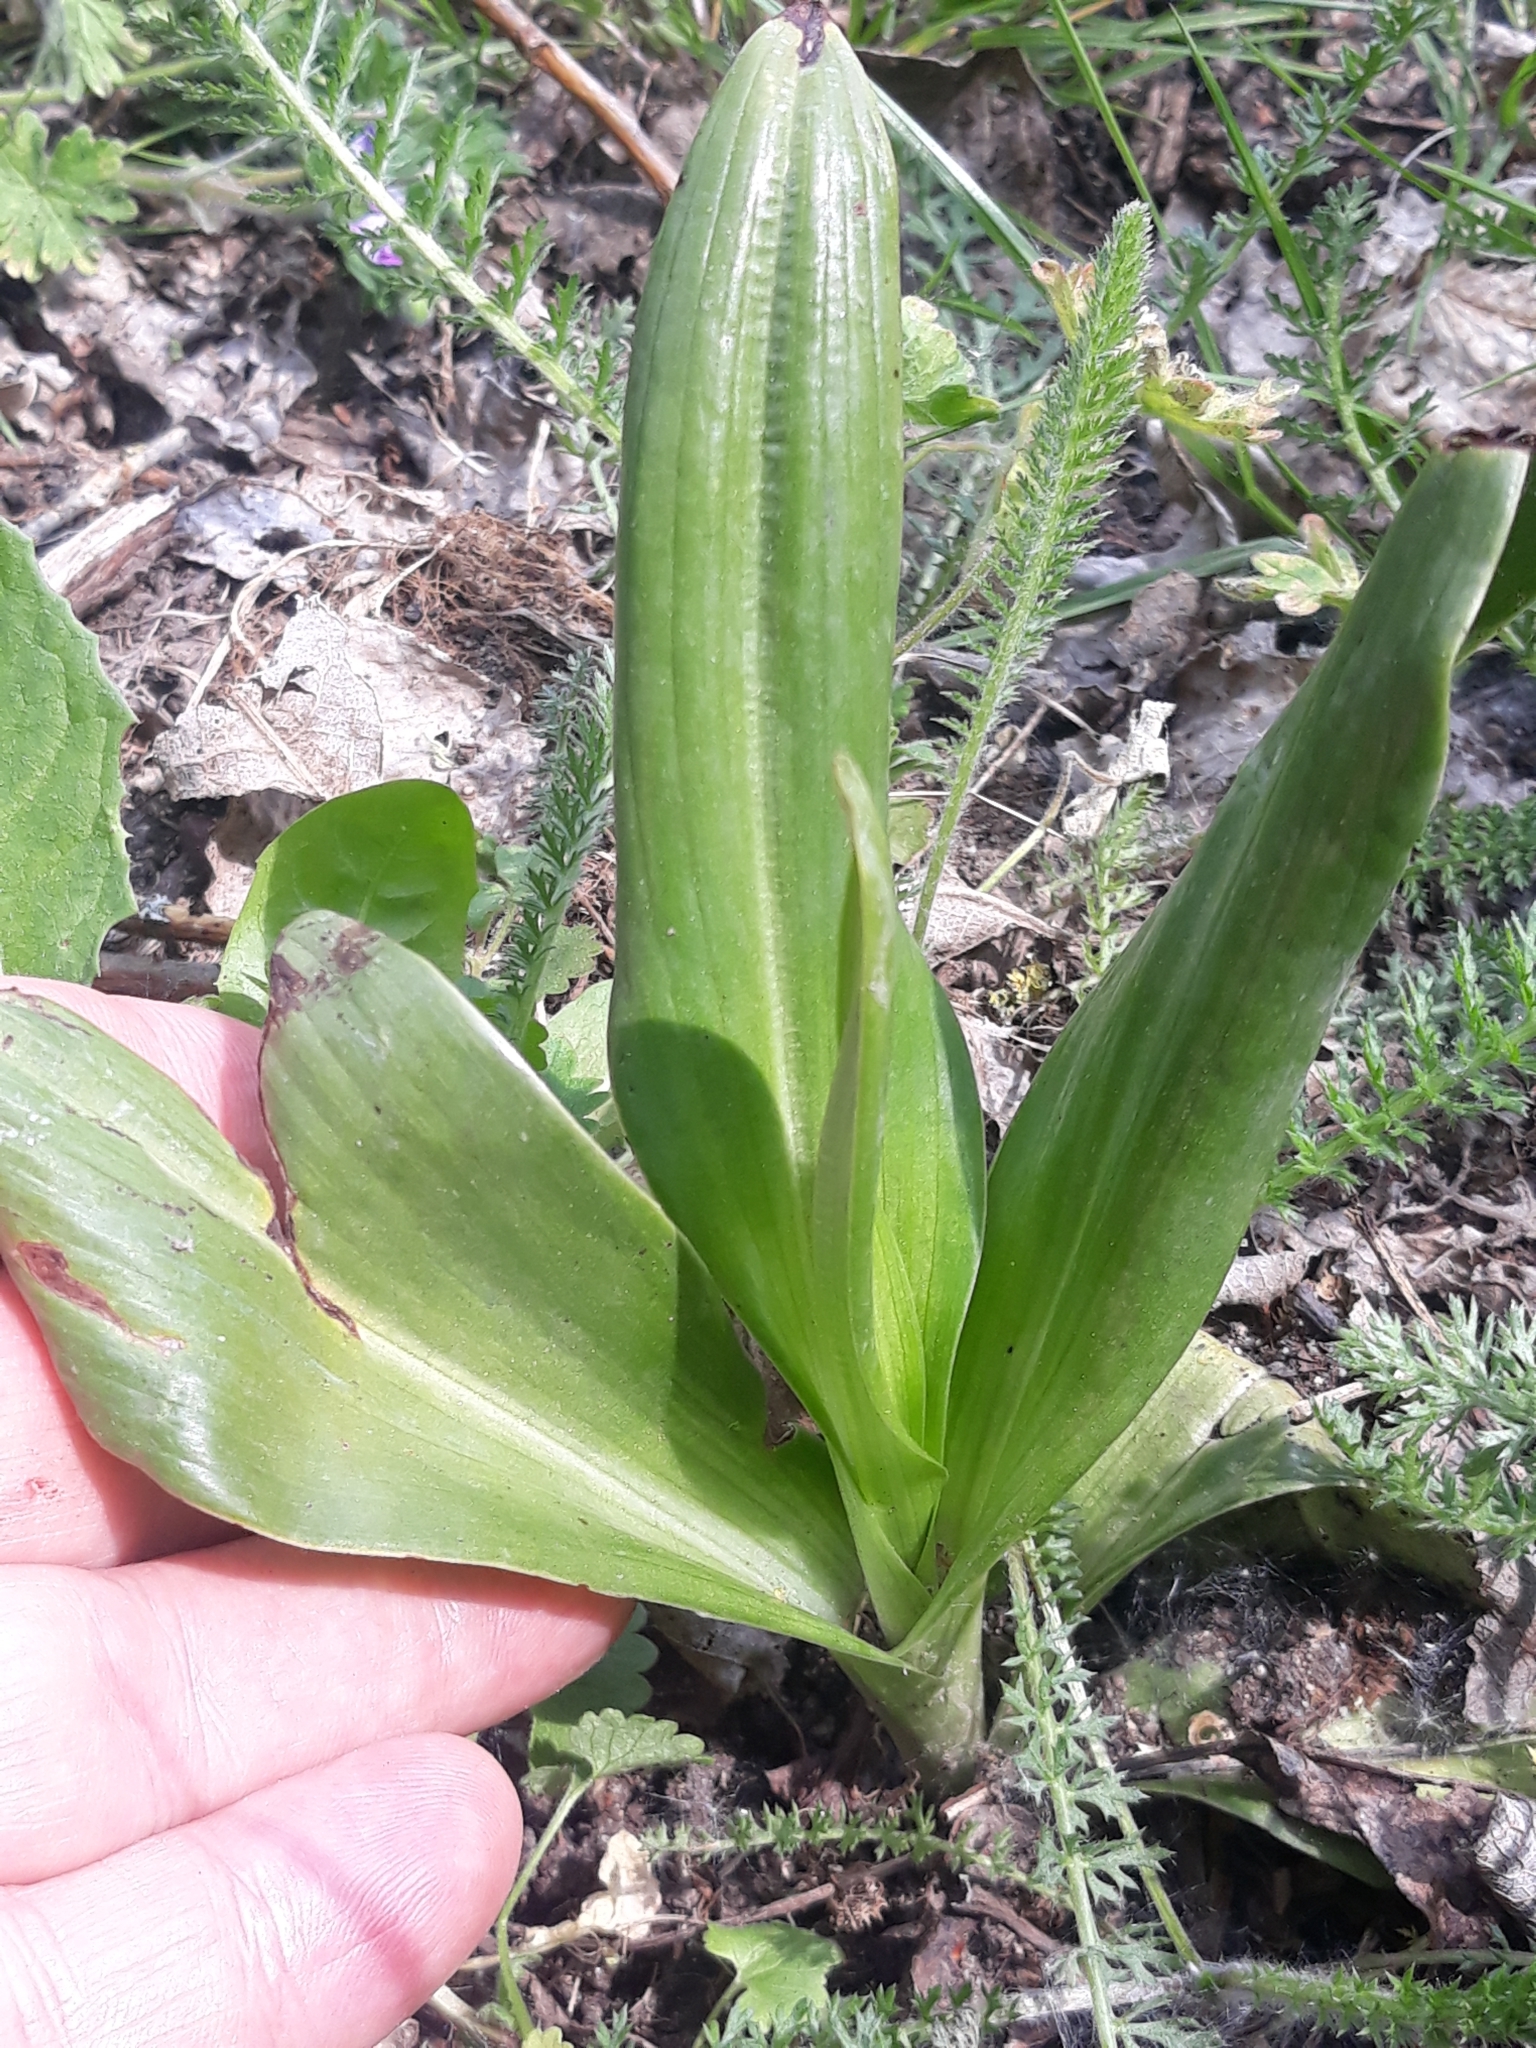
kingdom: Plantae
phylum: Tracheophyta
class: Liliopsida
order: Asparagales
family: Orchidaceae
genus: Himantoglossum
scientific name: Himantoglossum hircinum
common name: Lizard orchid
